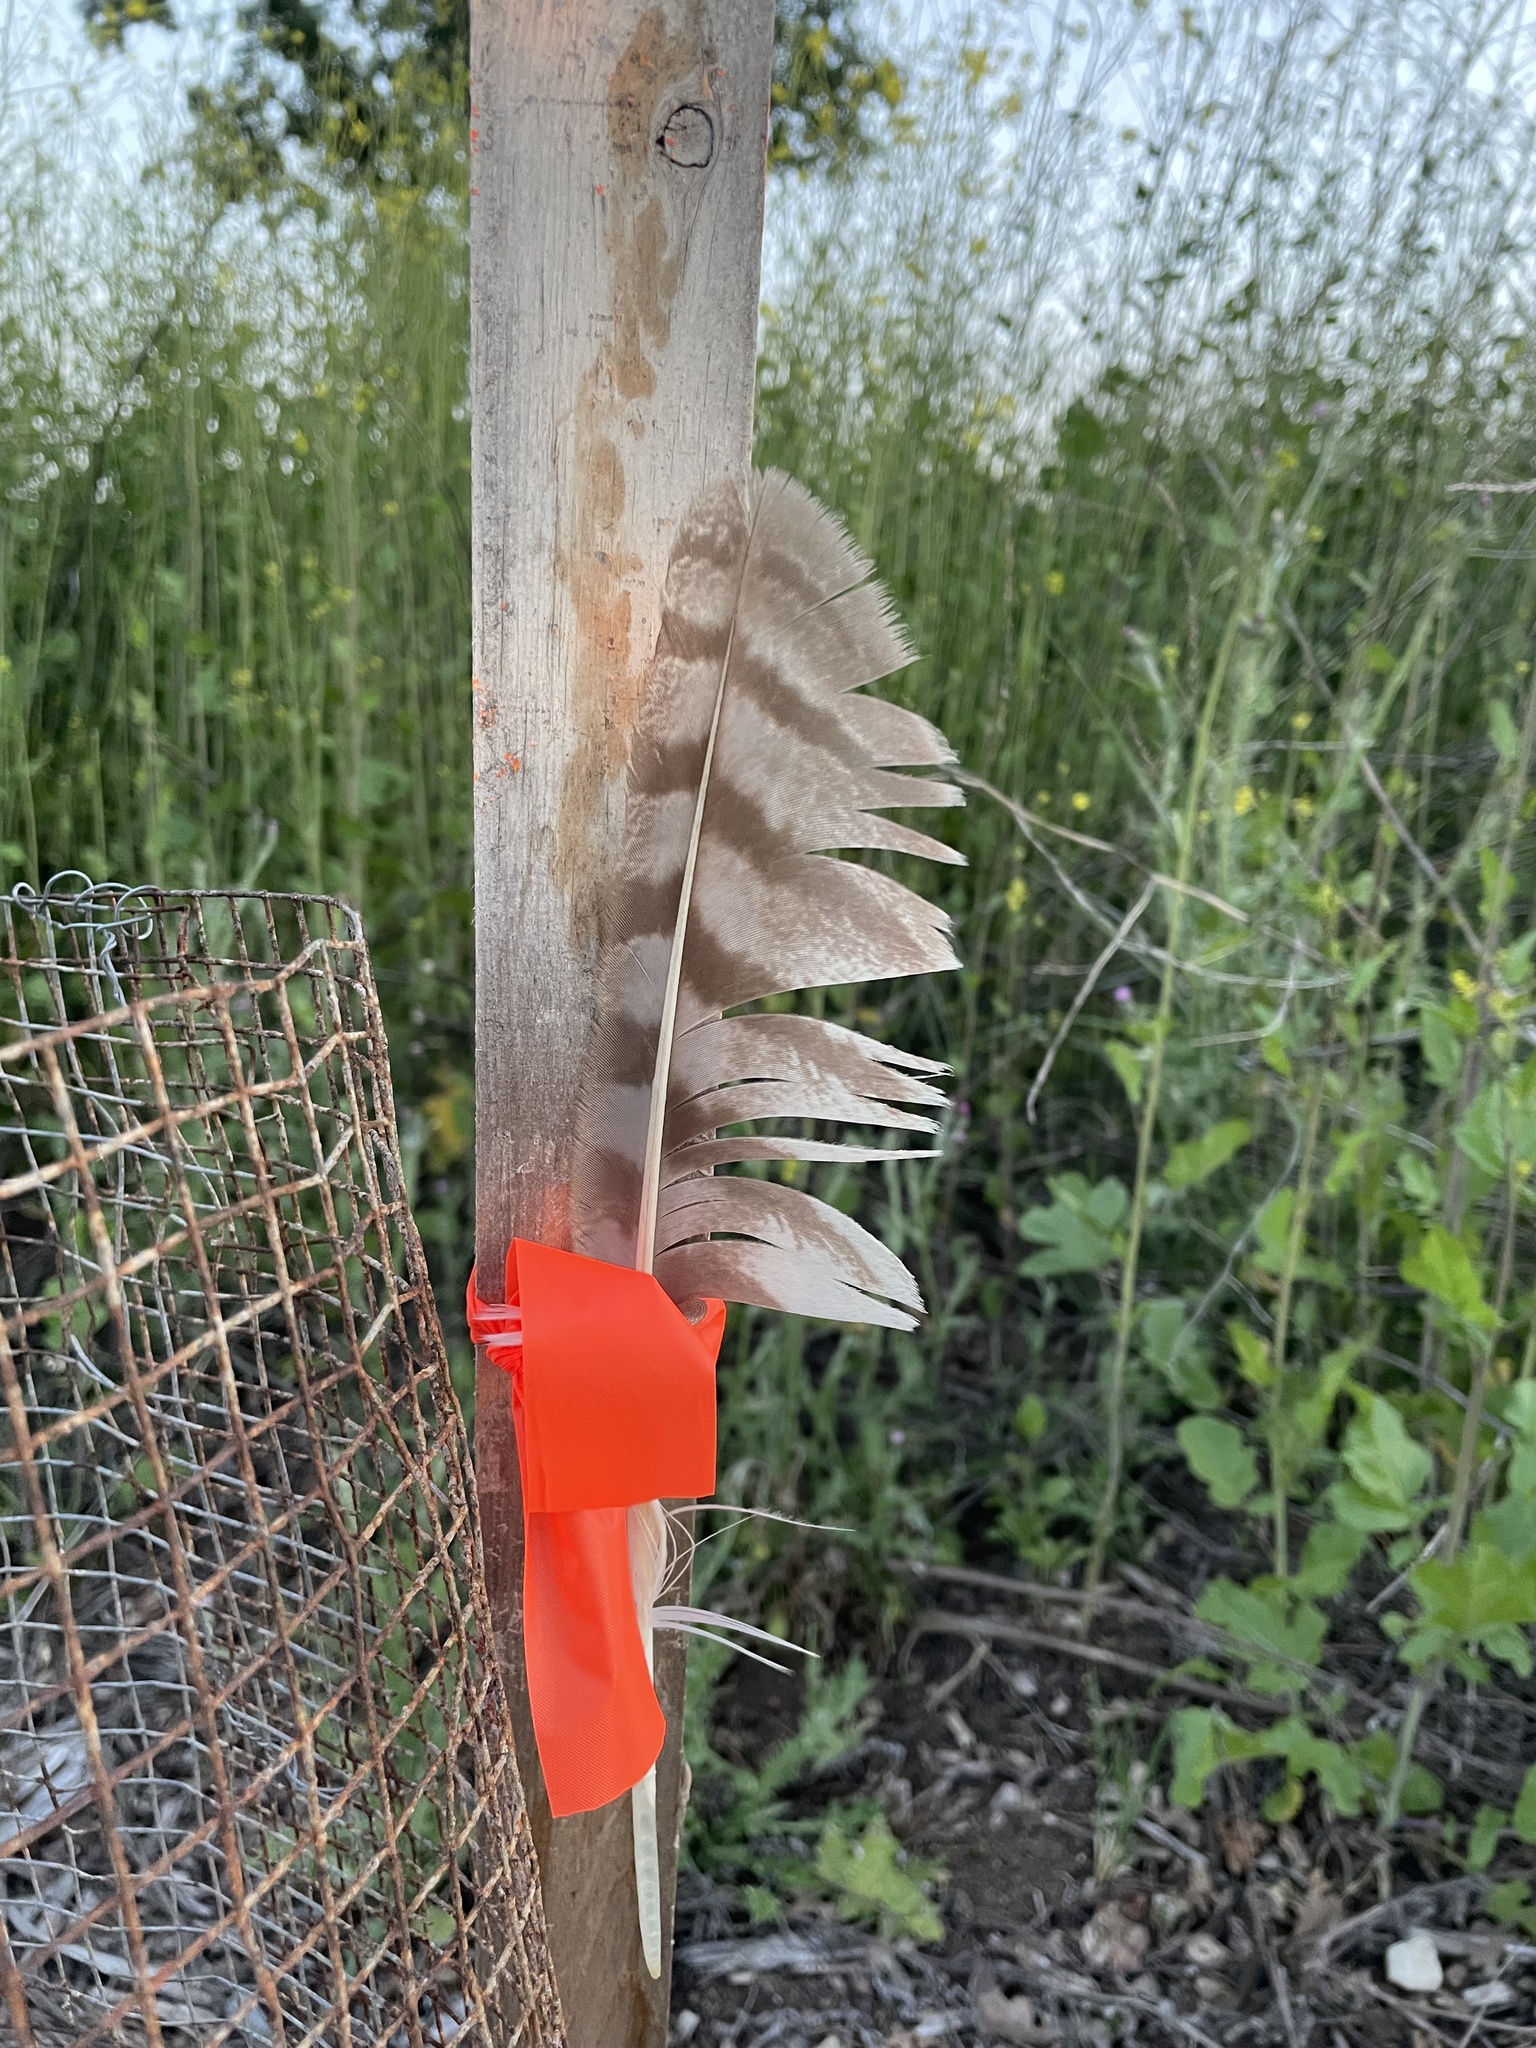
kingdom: Animalia
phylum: Chordata
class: Aves
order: Strigiformes
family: Strigidae
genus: Bubo
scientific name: Bubo virginianus
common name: Great horned owl
